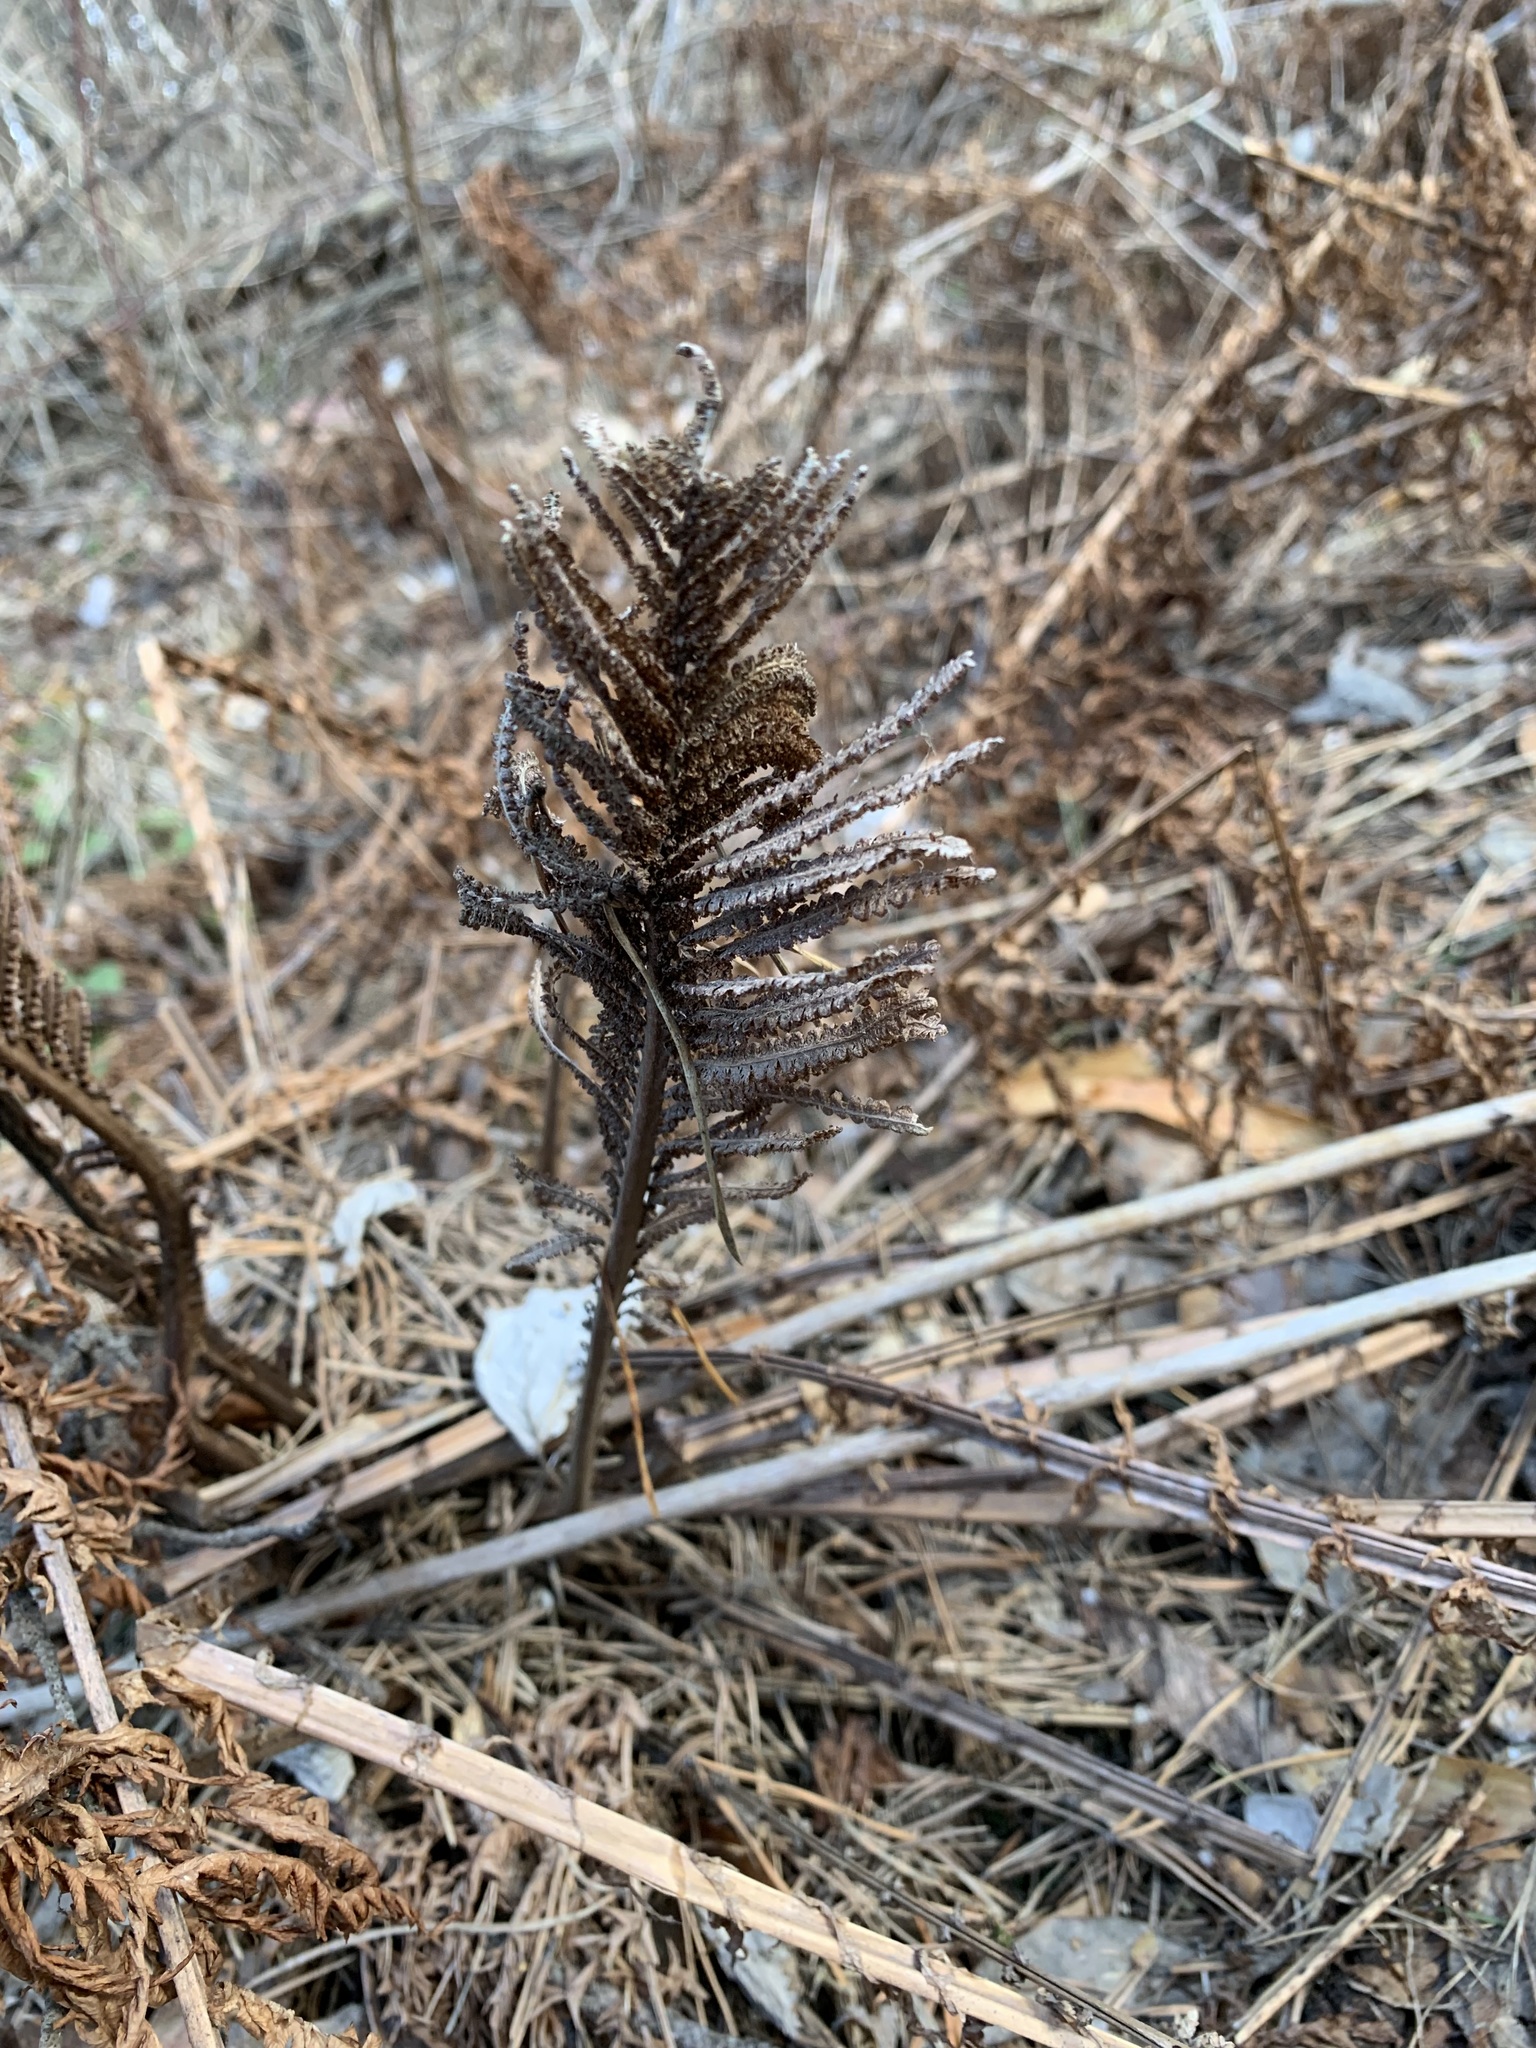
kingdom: Plantae
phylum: Tracheophyta
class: Polypodiopsida
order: Polypodiales
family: Onocleaceae
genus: Matteuccia
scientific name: Matteuccia struthiopteris
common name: Ostrich fern
